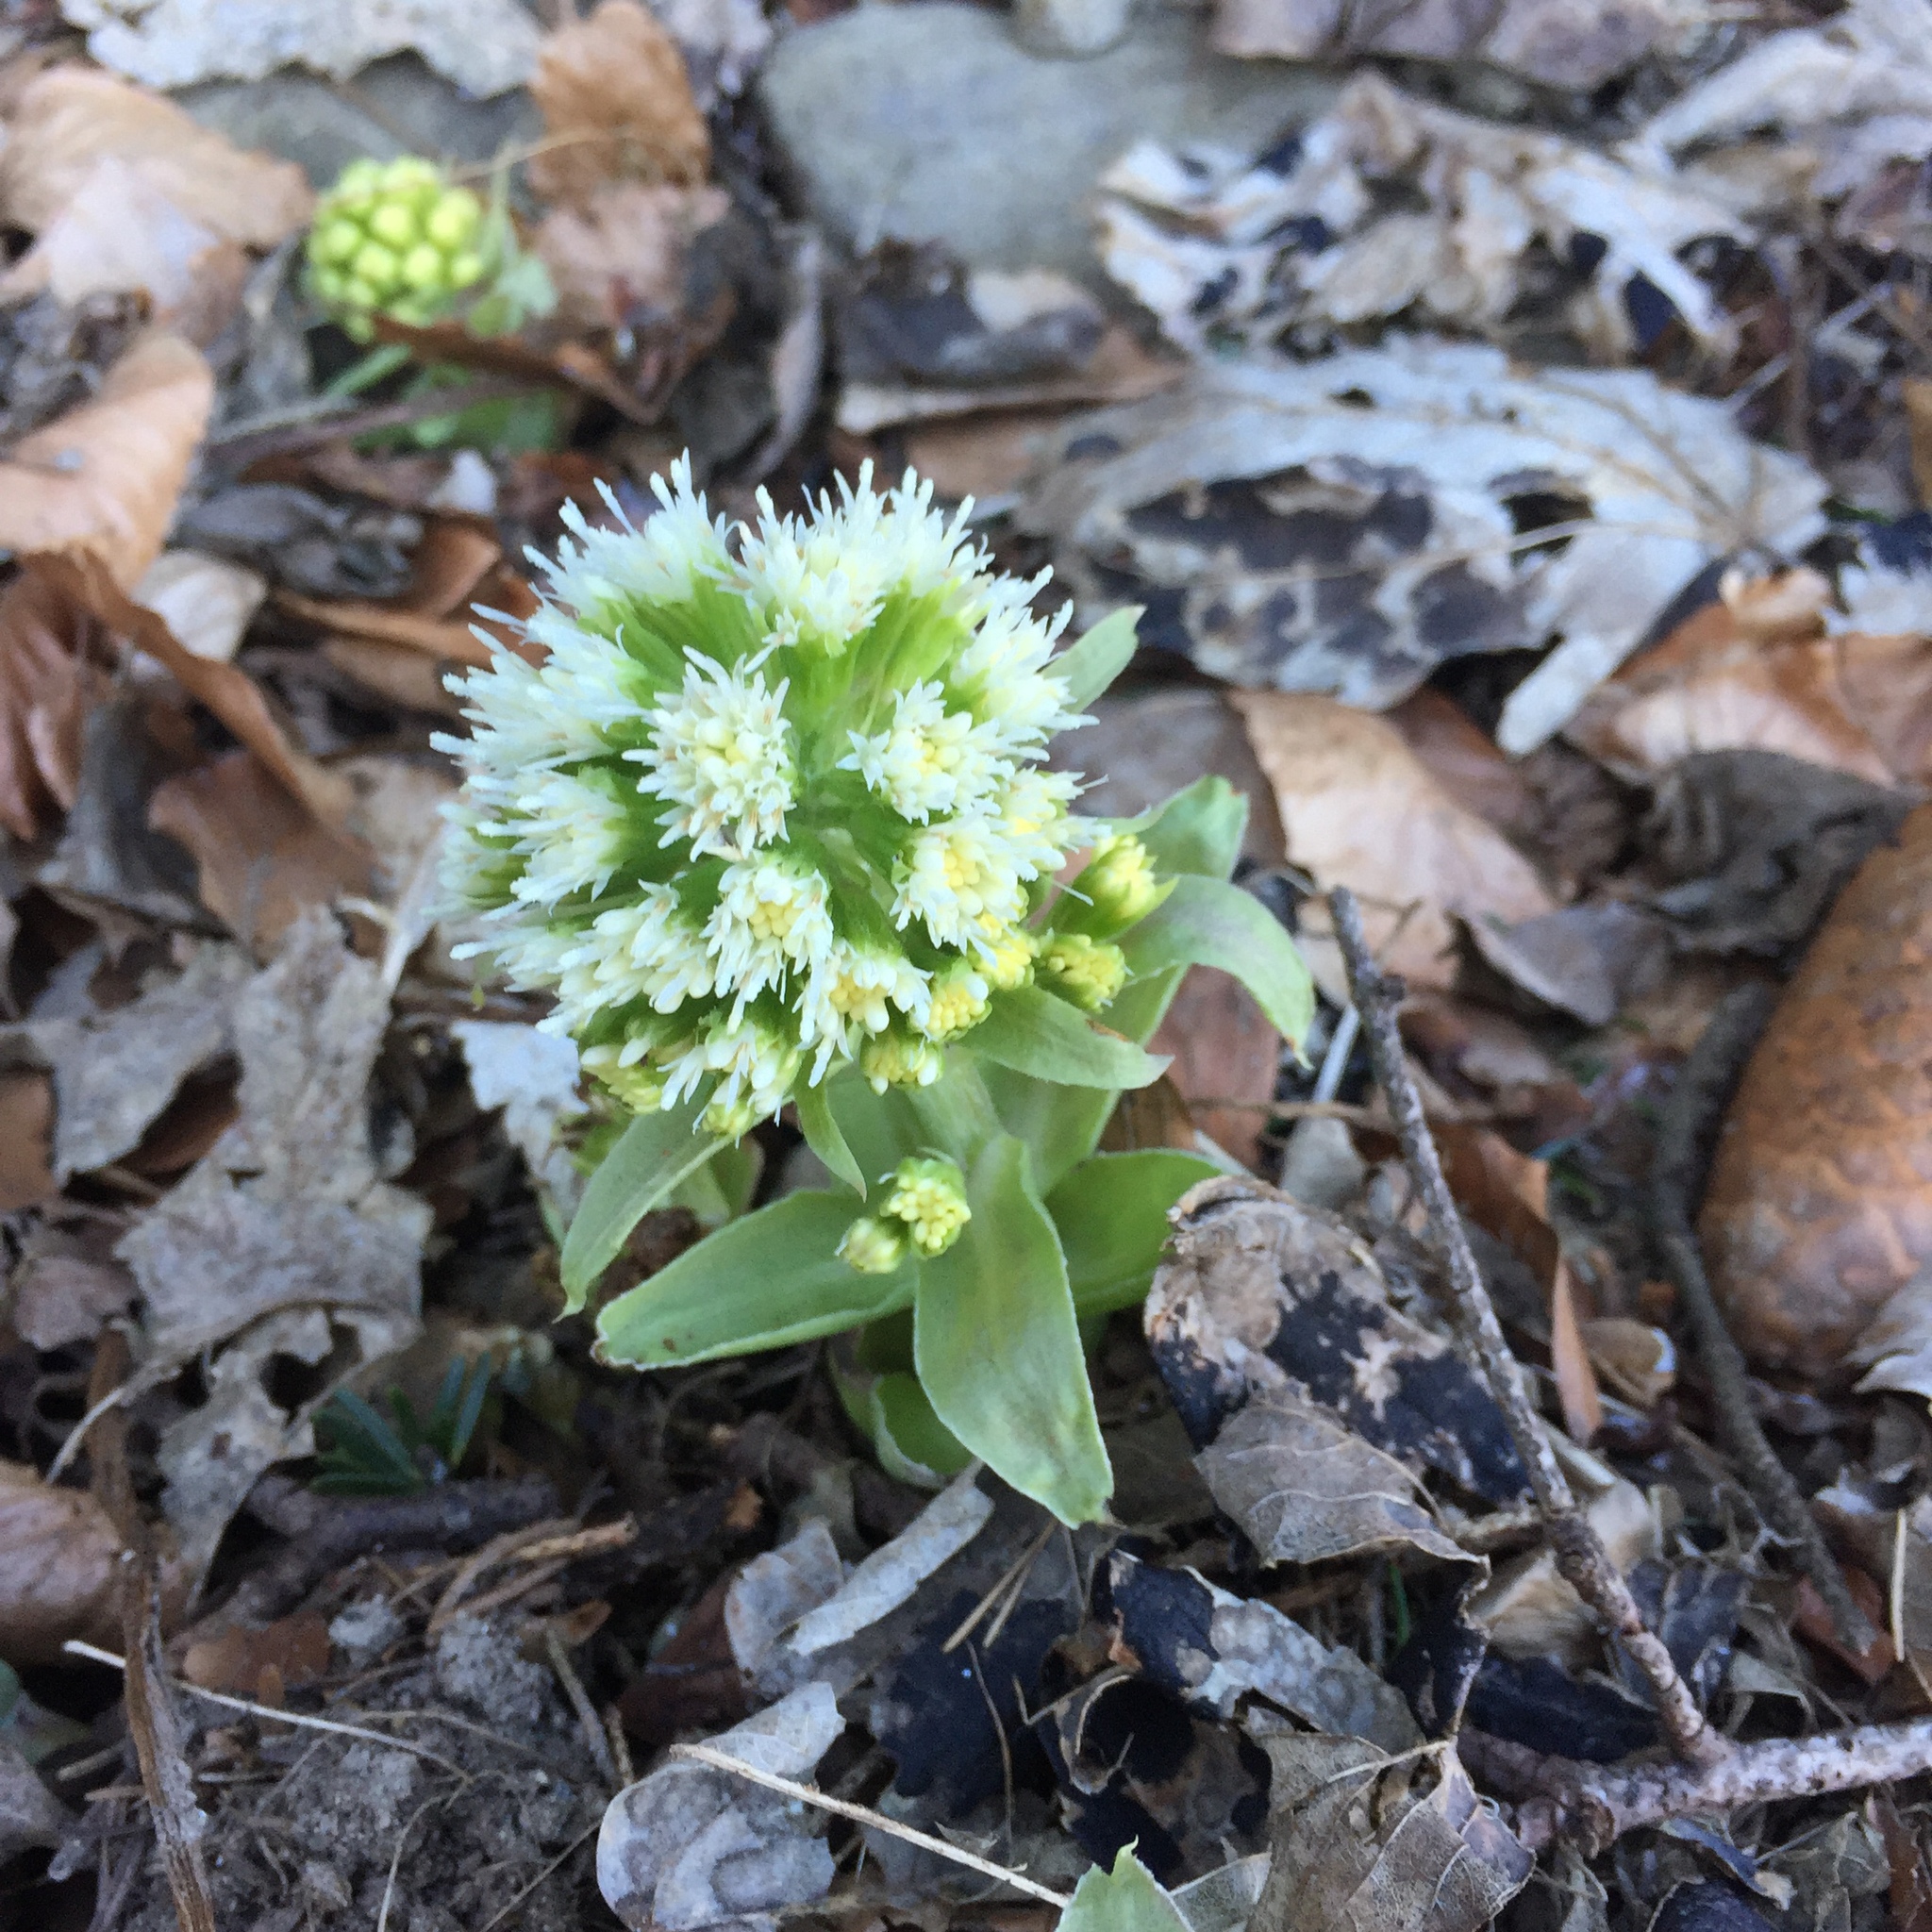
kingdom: Plantae
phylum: Tracheophyta
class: Magnoliopsida
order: Asterales
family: Asteraceae
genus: Petasites
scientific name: Petasites albus
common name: White butterbur
